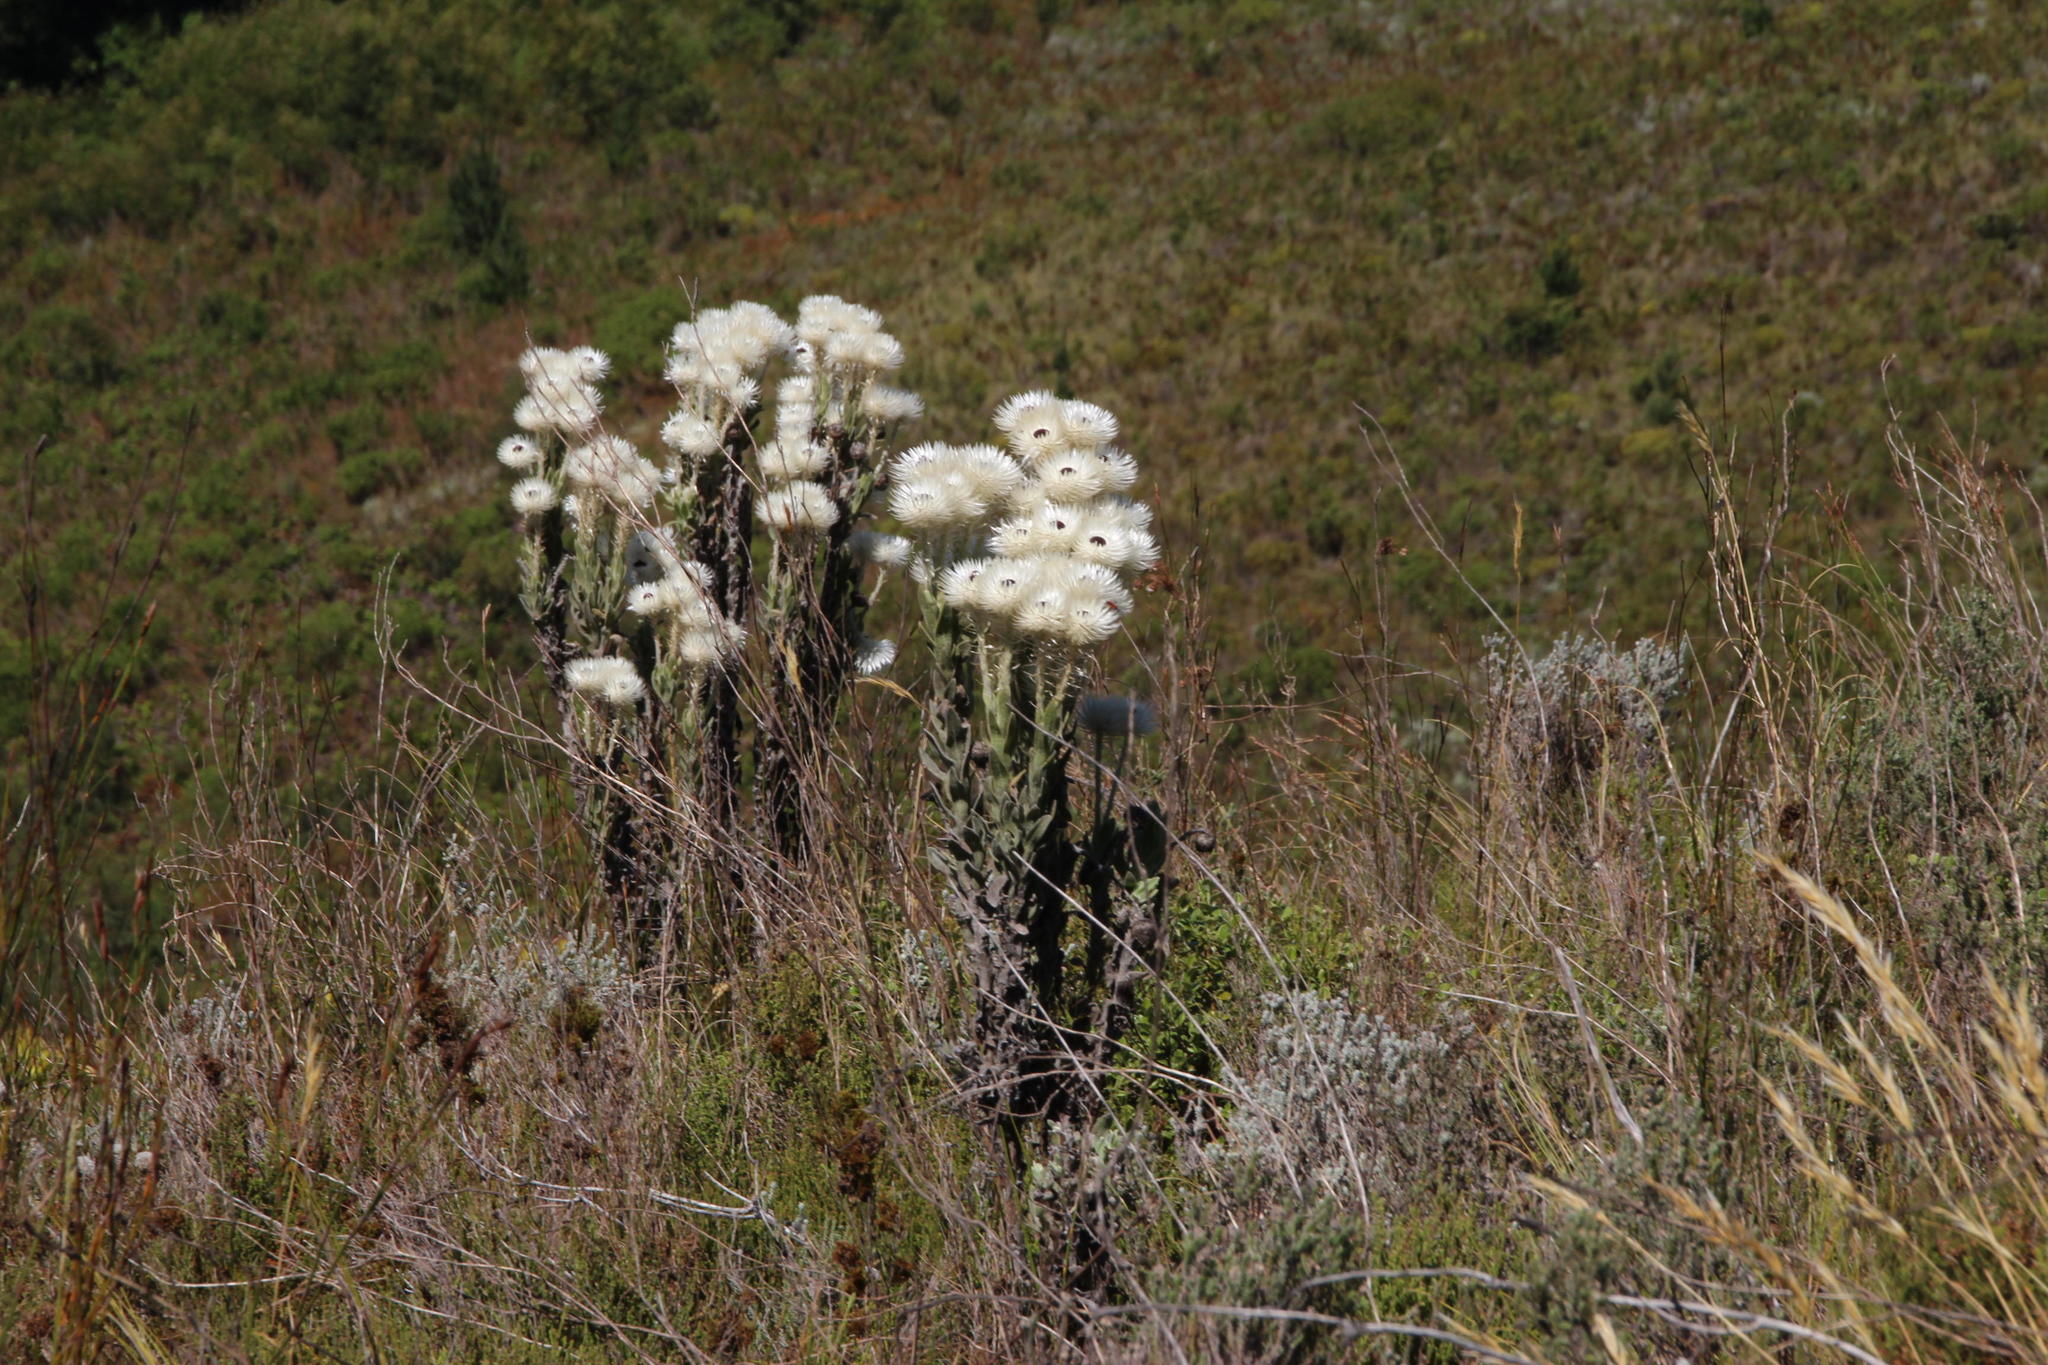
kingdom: Plantae
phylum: Tracheophyta
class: Magnoliopsida
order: Asterales
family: Asteraceae
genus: Syncarpha
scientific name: Syncarpha vestita
